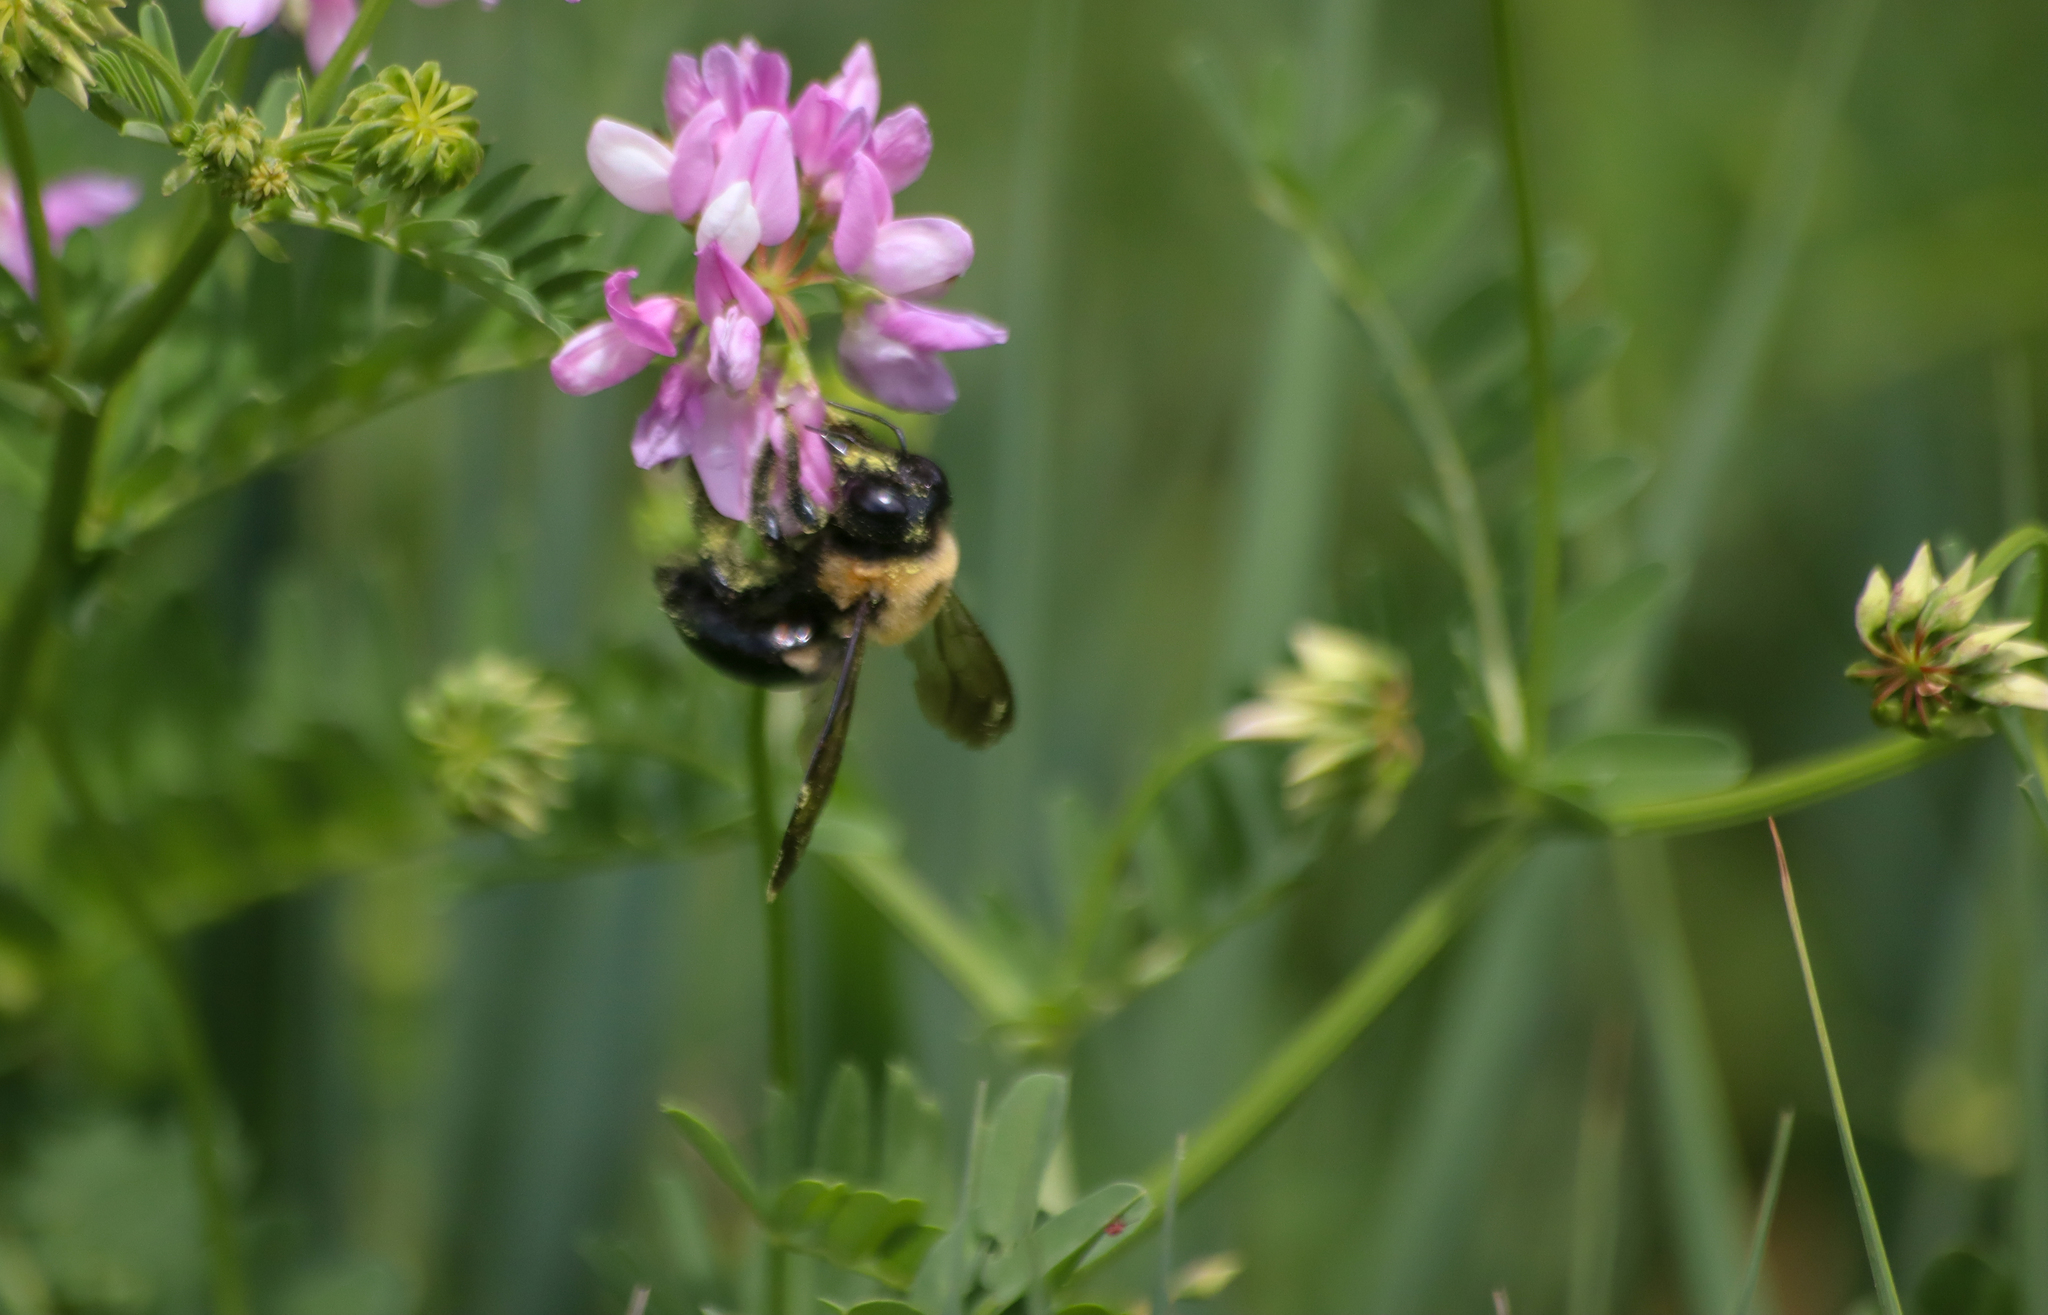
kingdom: Animalia
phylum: Arthropoda
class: Insecta
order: Hymenoptera
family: Apidae
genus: Xylocopa
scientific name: Xylocopa virginica
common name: Carpenter bee
